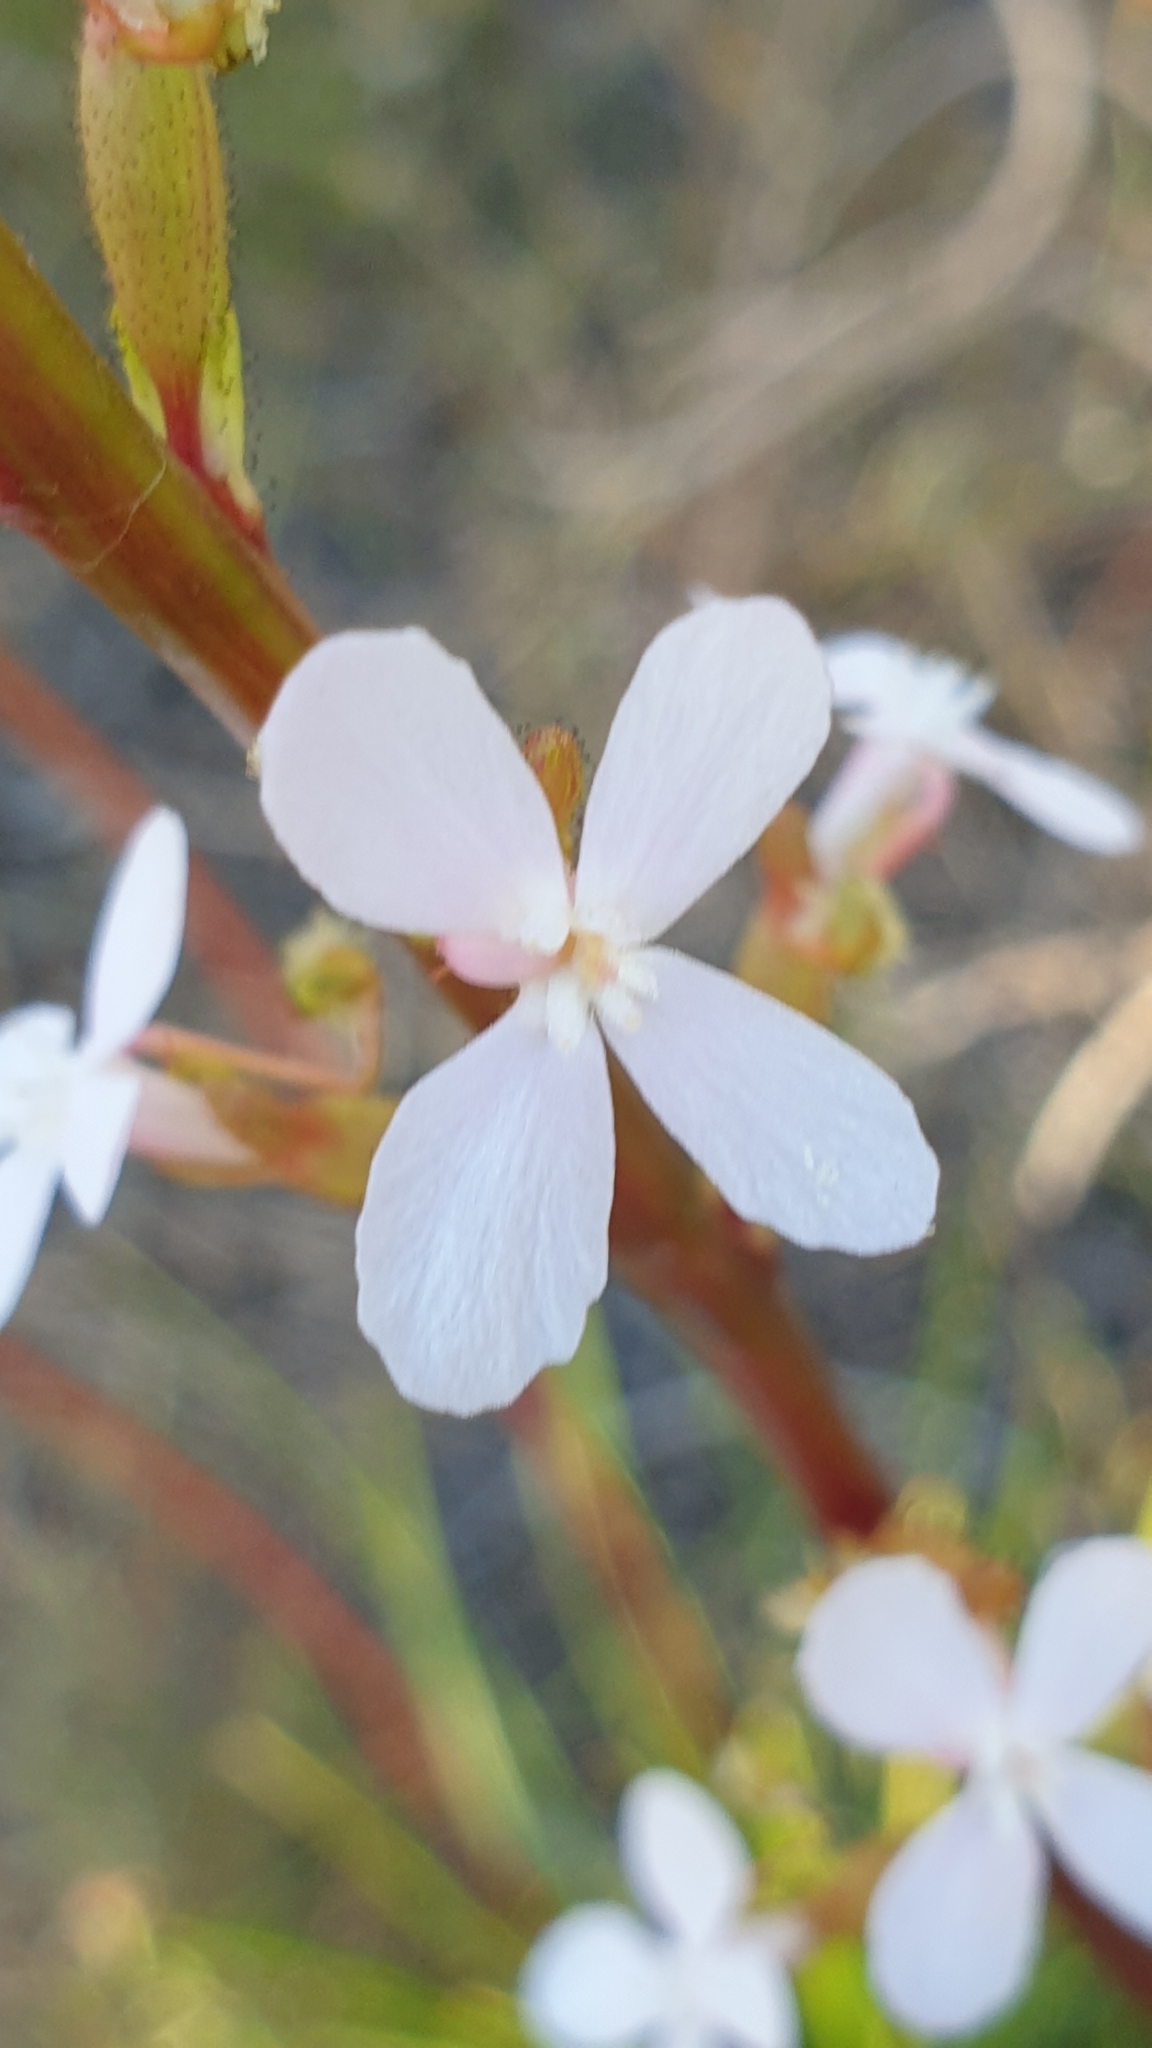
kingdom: Plantae
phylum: Tracheophyta
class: Magnoliopsida
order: Asterales
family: Stylidiaceae
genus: Stylidium
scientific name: Stylidium armeria
